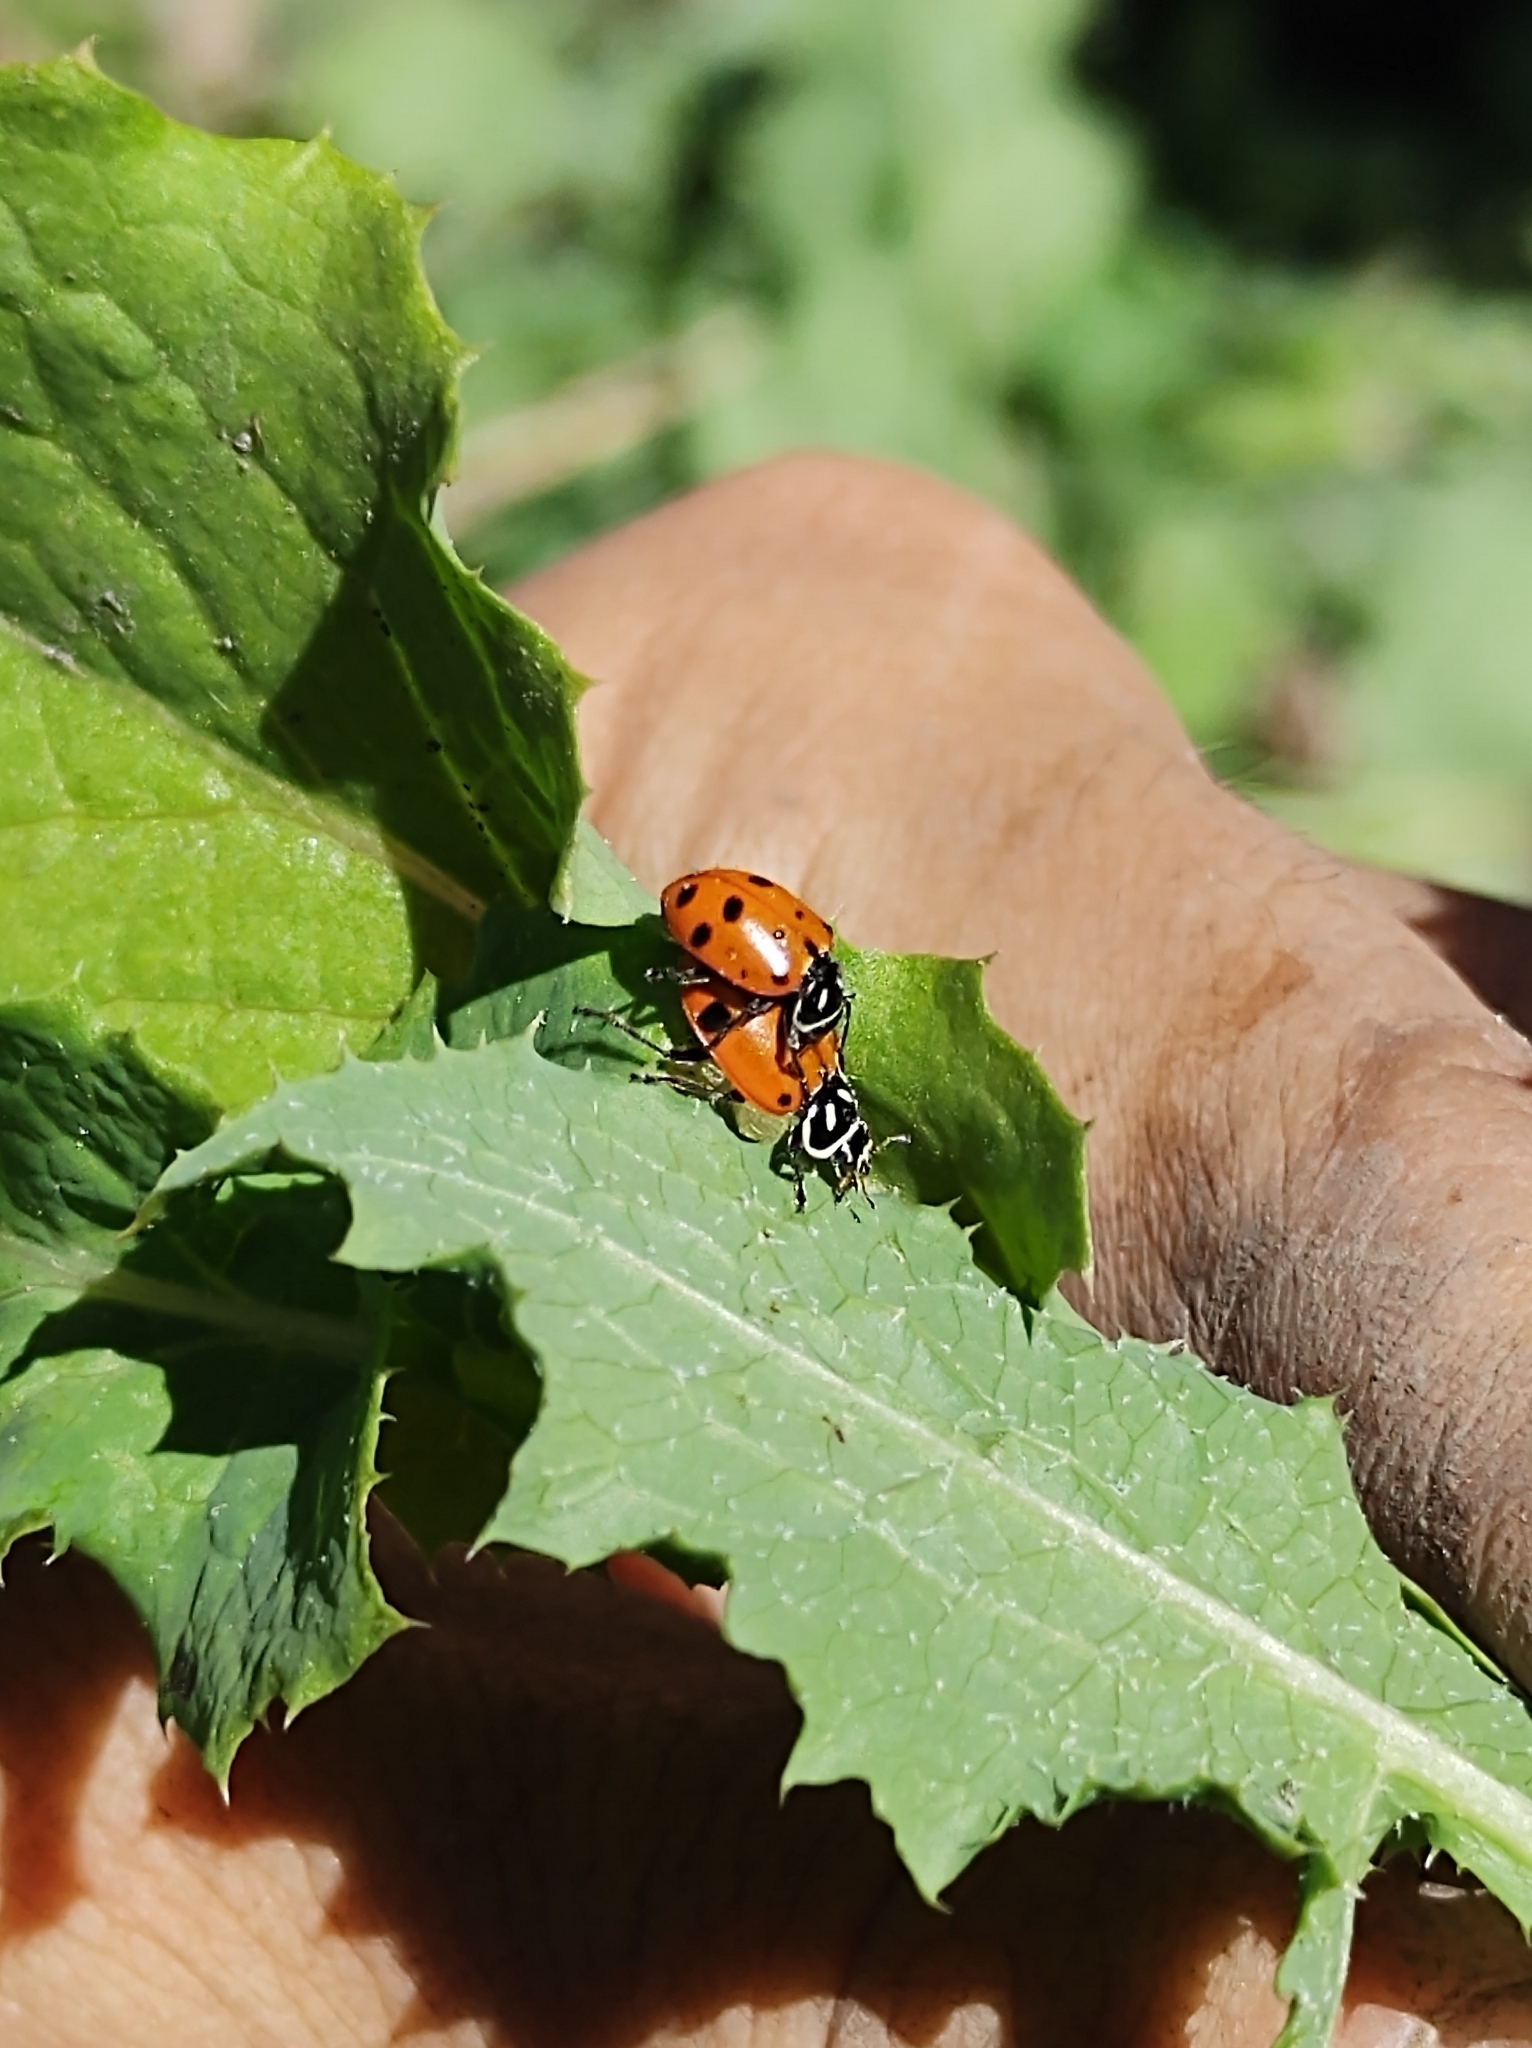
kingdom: Animalia
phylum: Arthropoda
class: Insecta
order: Coleoptera
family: Coccinellidae
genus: Hippodamia
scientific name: Hippodamia convergens
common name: Convergent lady beetle
